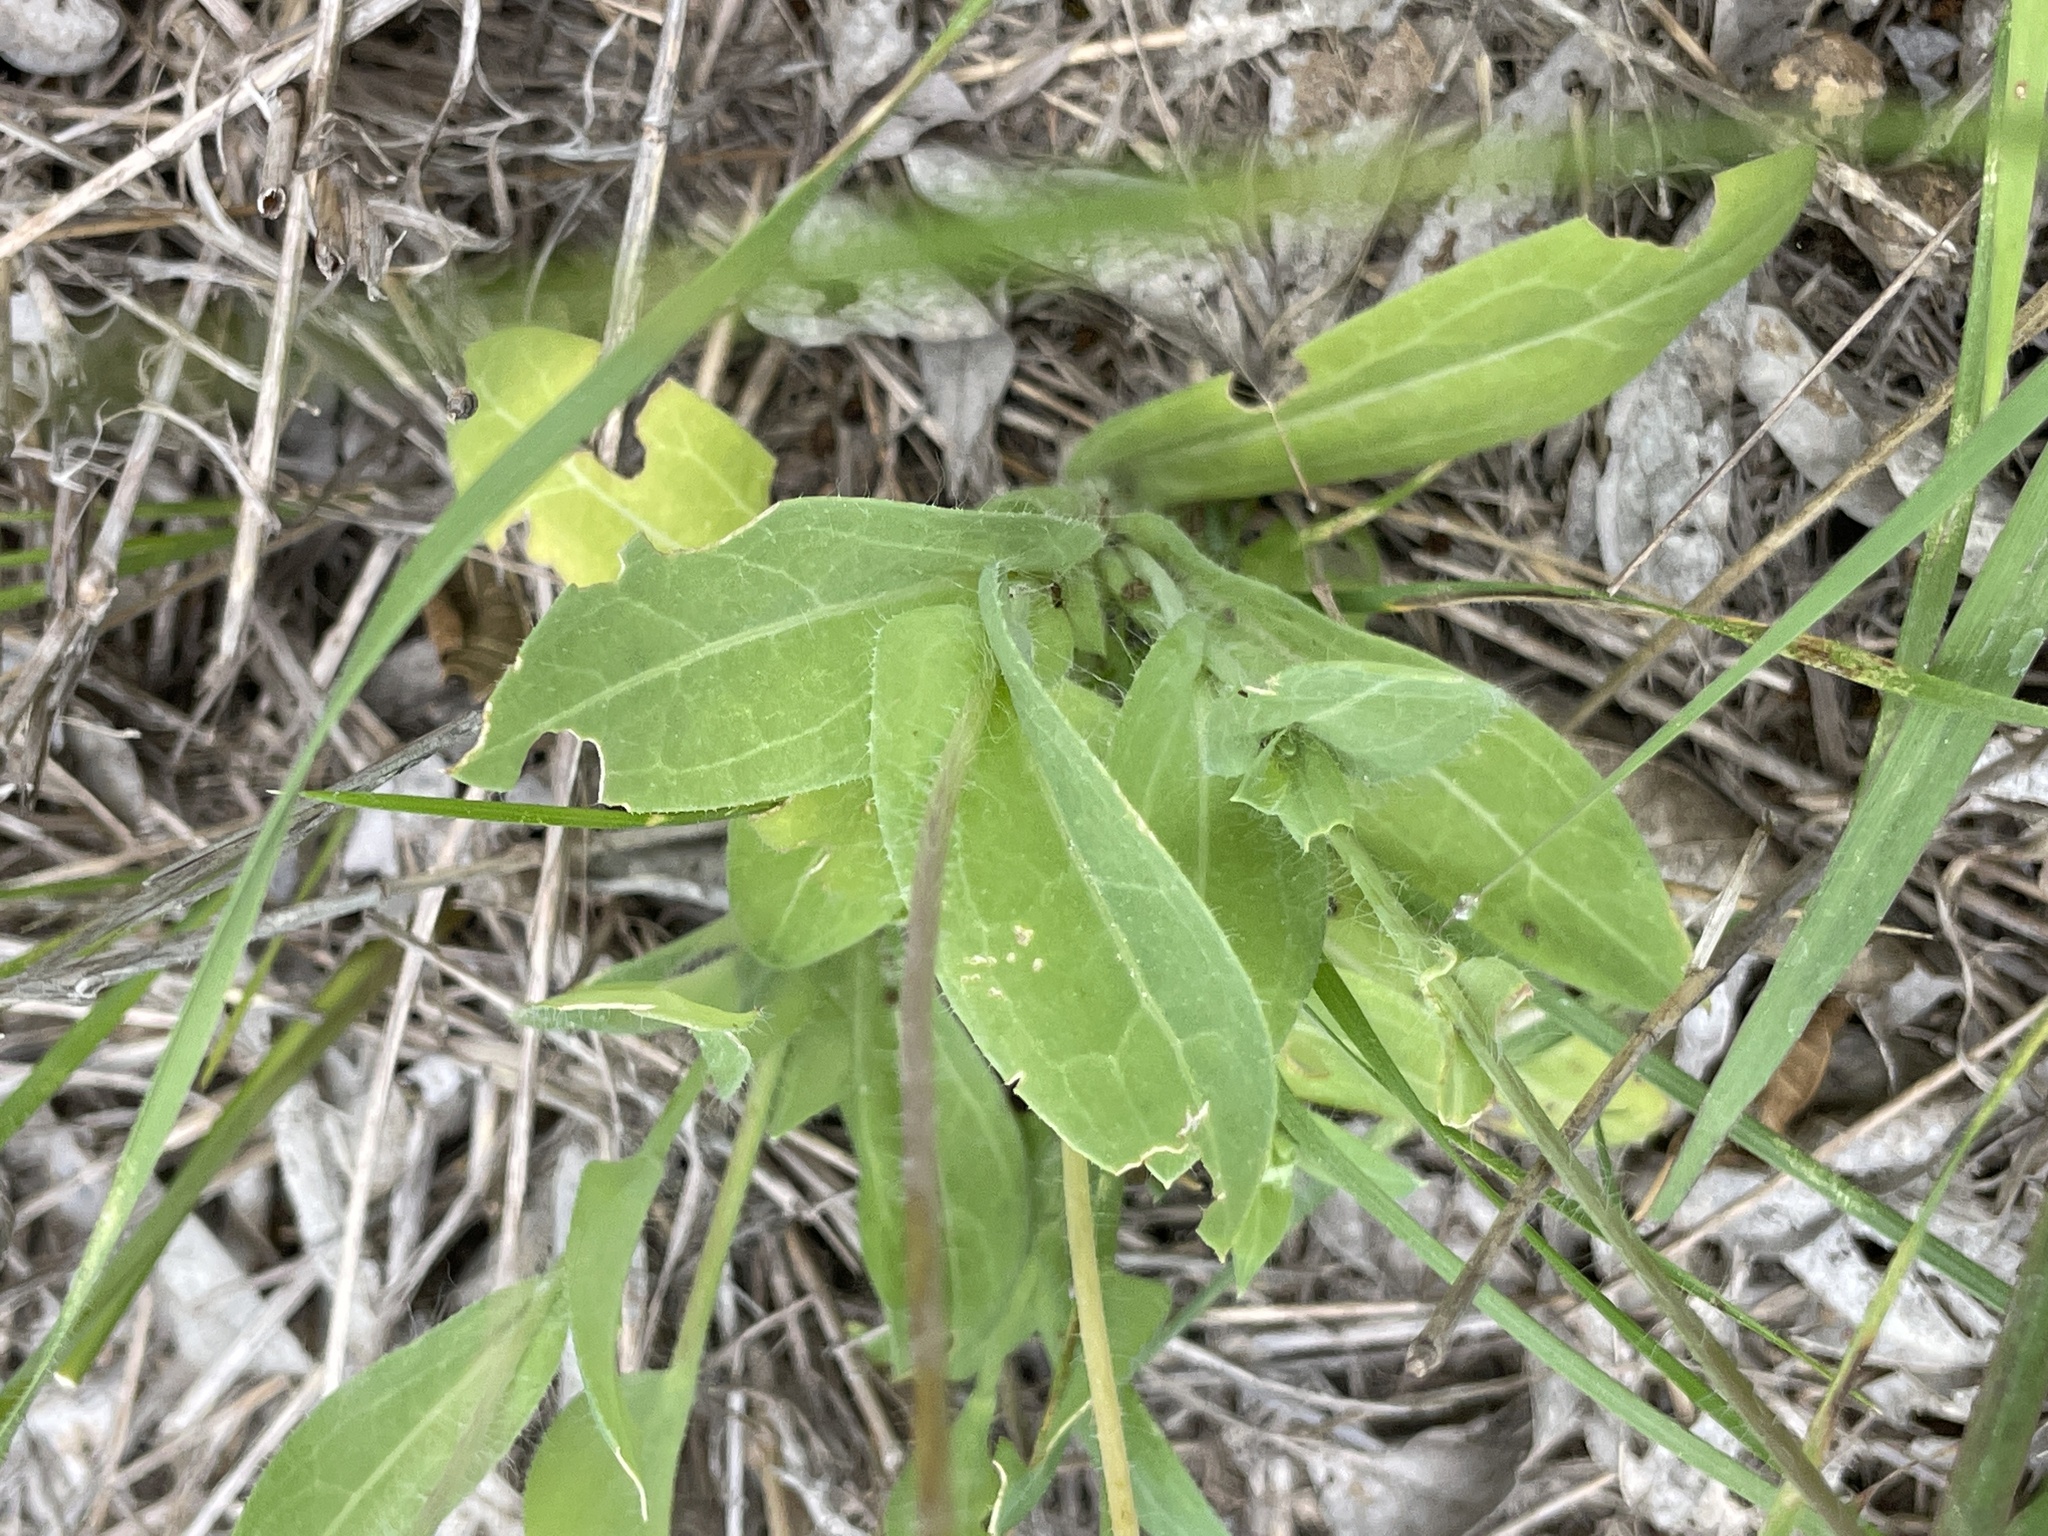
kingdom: Plantae
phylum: Tracheophyta
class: Magnoliopsida
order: Asterales
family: Asteraceae
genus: Amblyolepis
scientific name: Amblyolepis setigera
